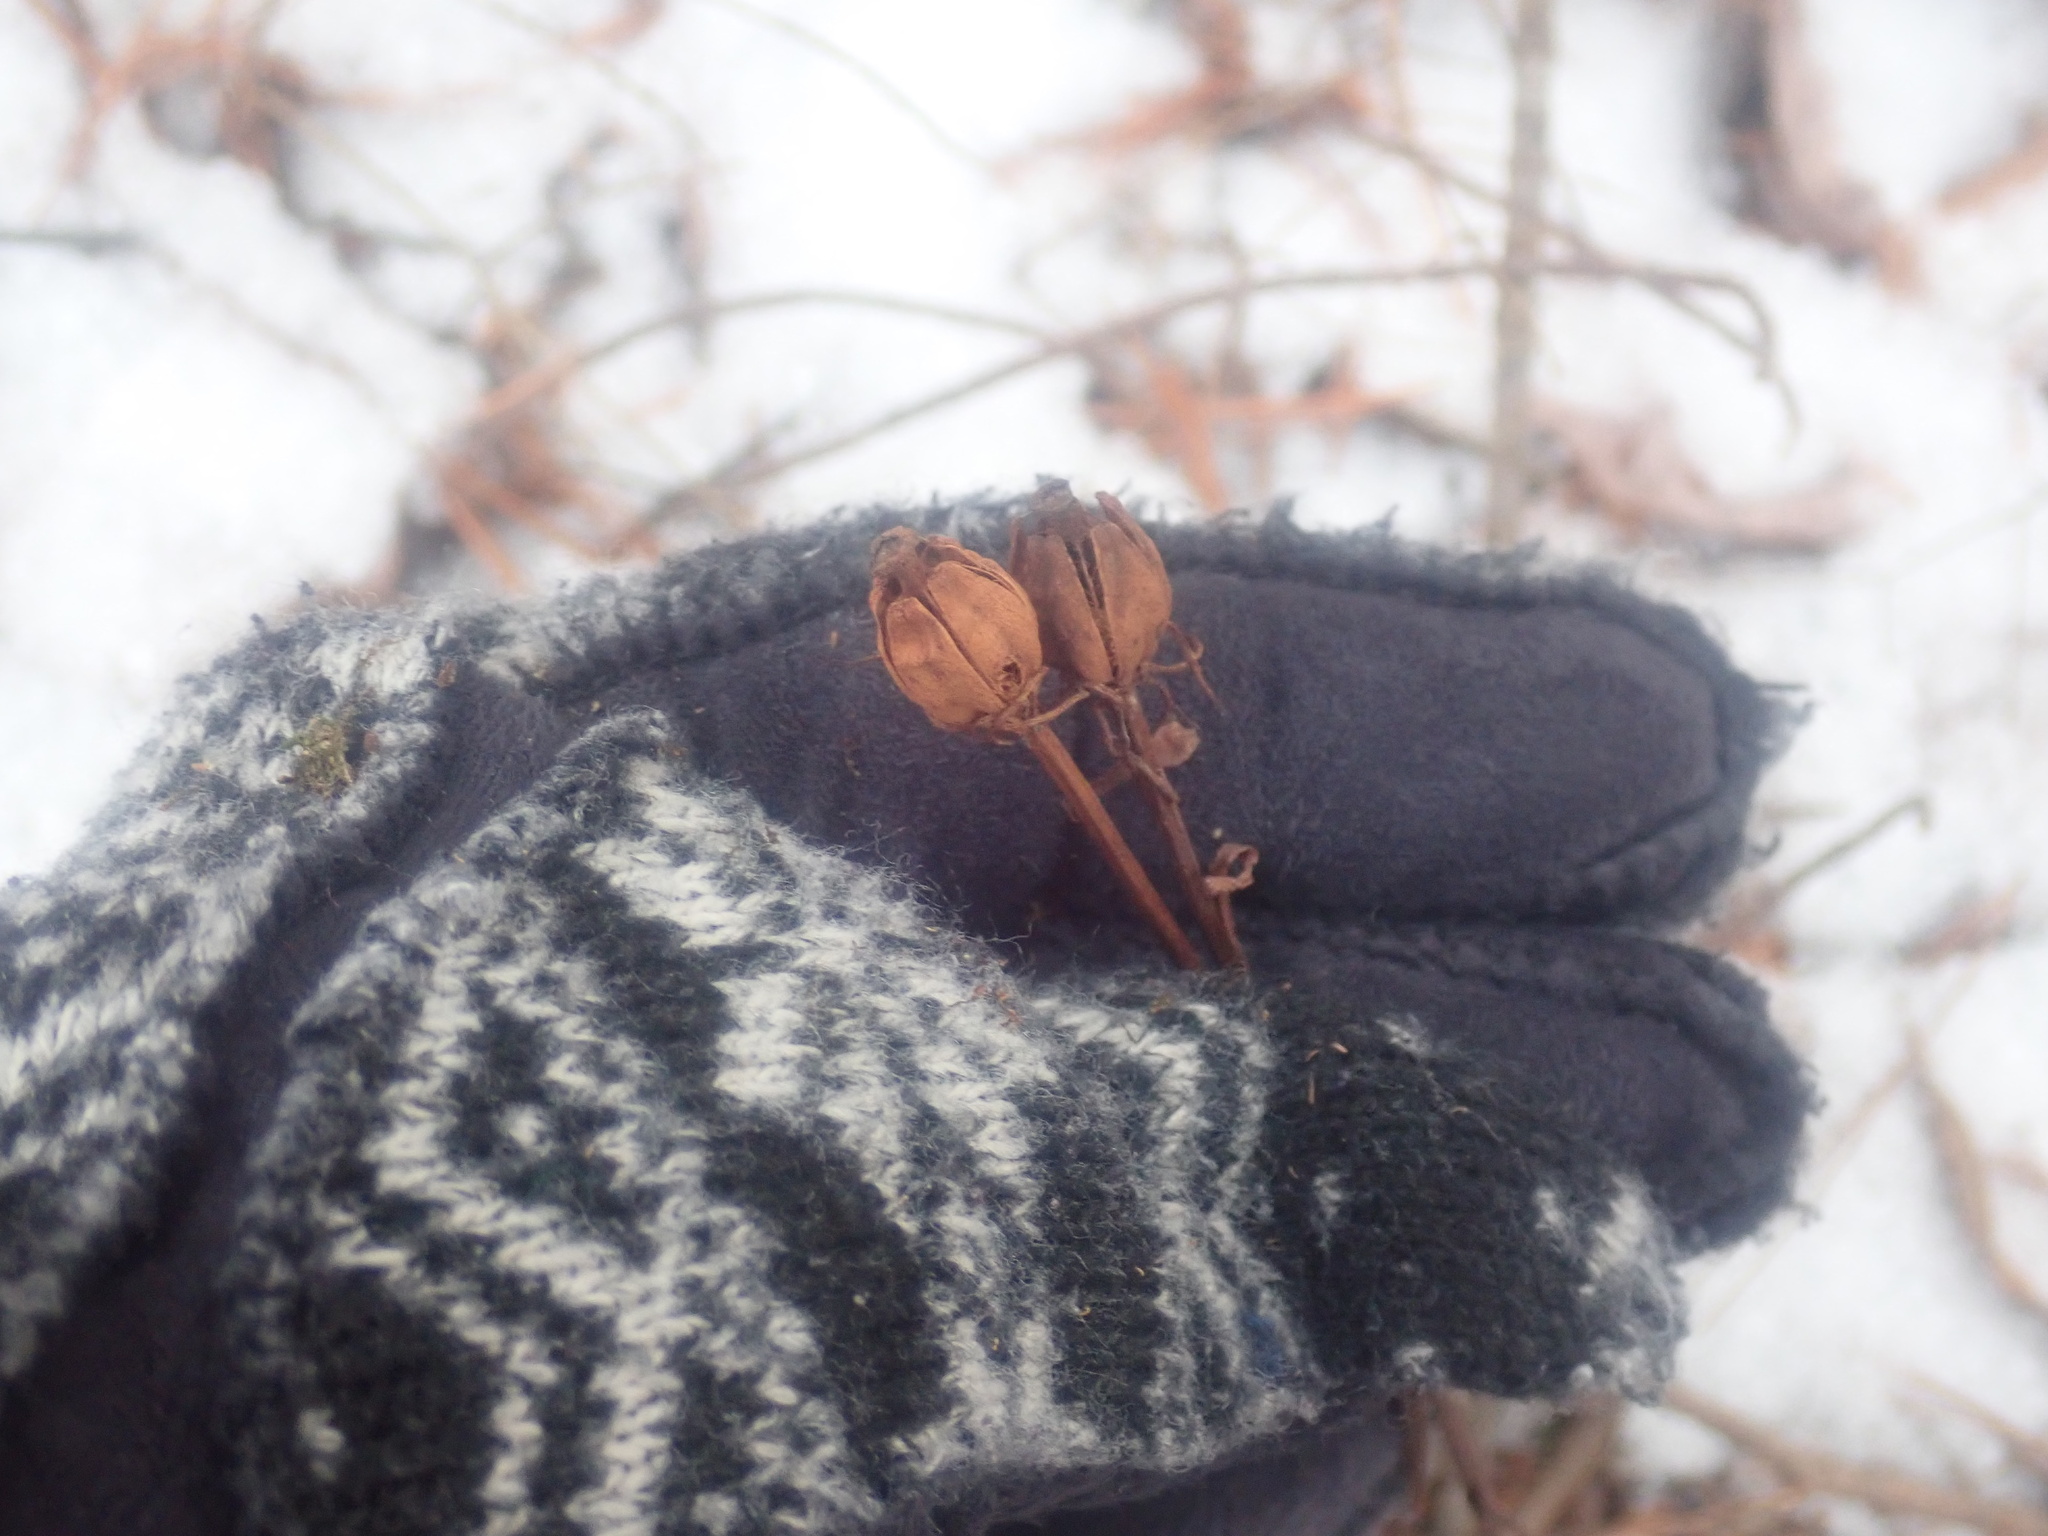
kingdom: Plantae
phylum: Tracheophyta
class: Magnoliopsida
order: Ericales
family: Ericaceae
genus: Monotropa
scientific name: Monotropa uniflora
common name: Convulsion root
